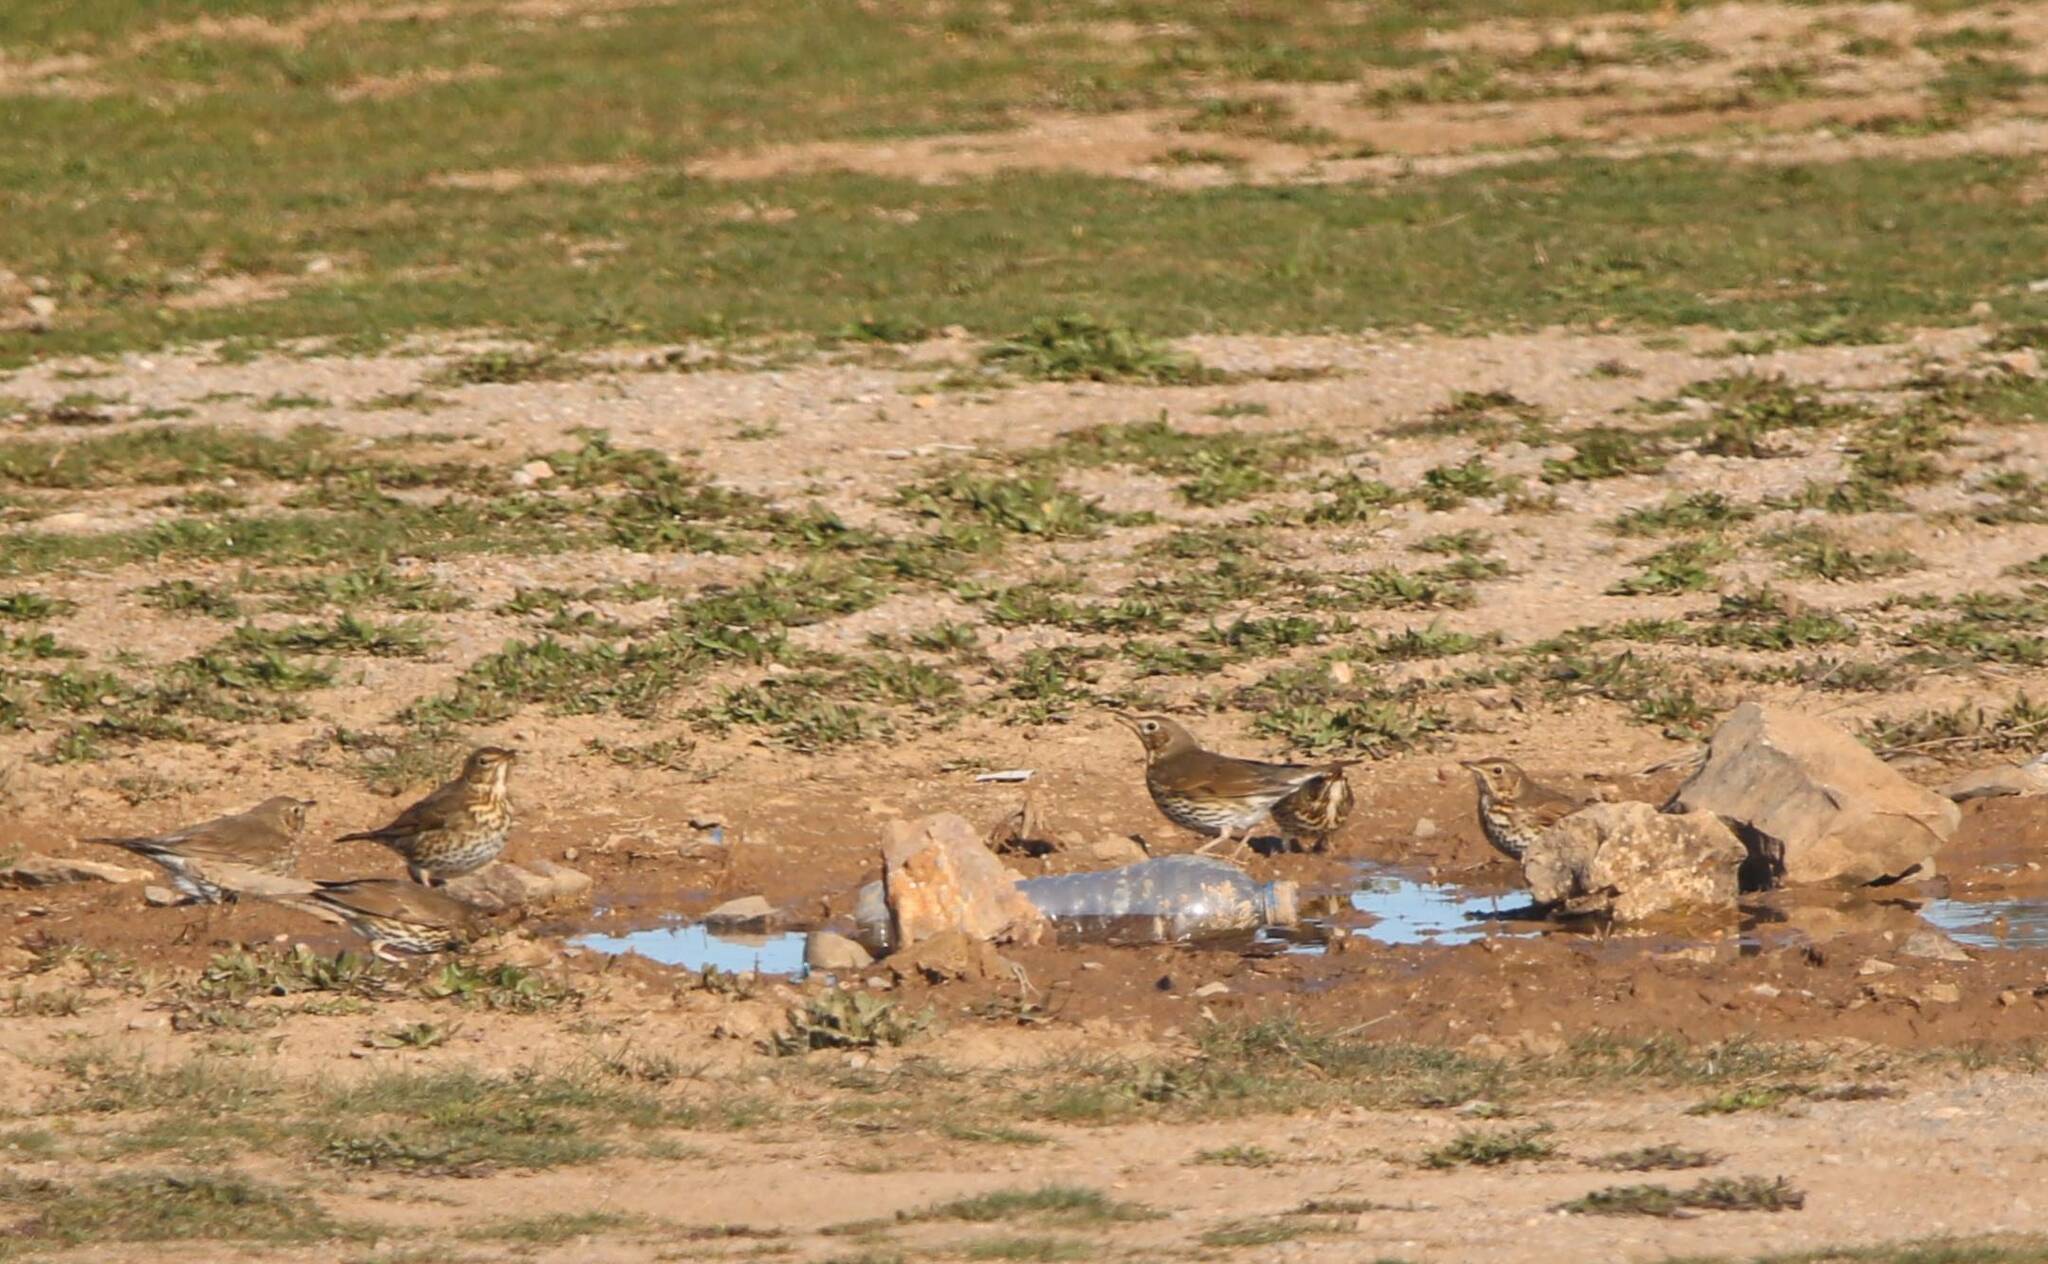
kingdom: Animalia
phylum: Chordata
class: Aves
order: Passeriformes
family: Turdidae
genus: Turdus
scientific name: Turdus philomelos
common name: Song thrush
